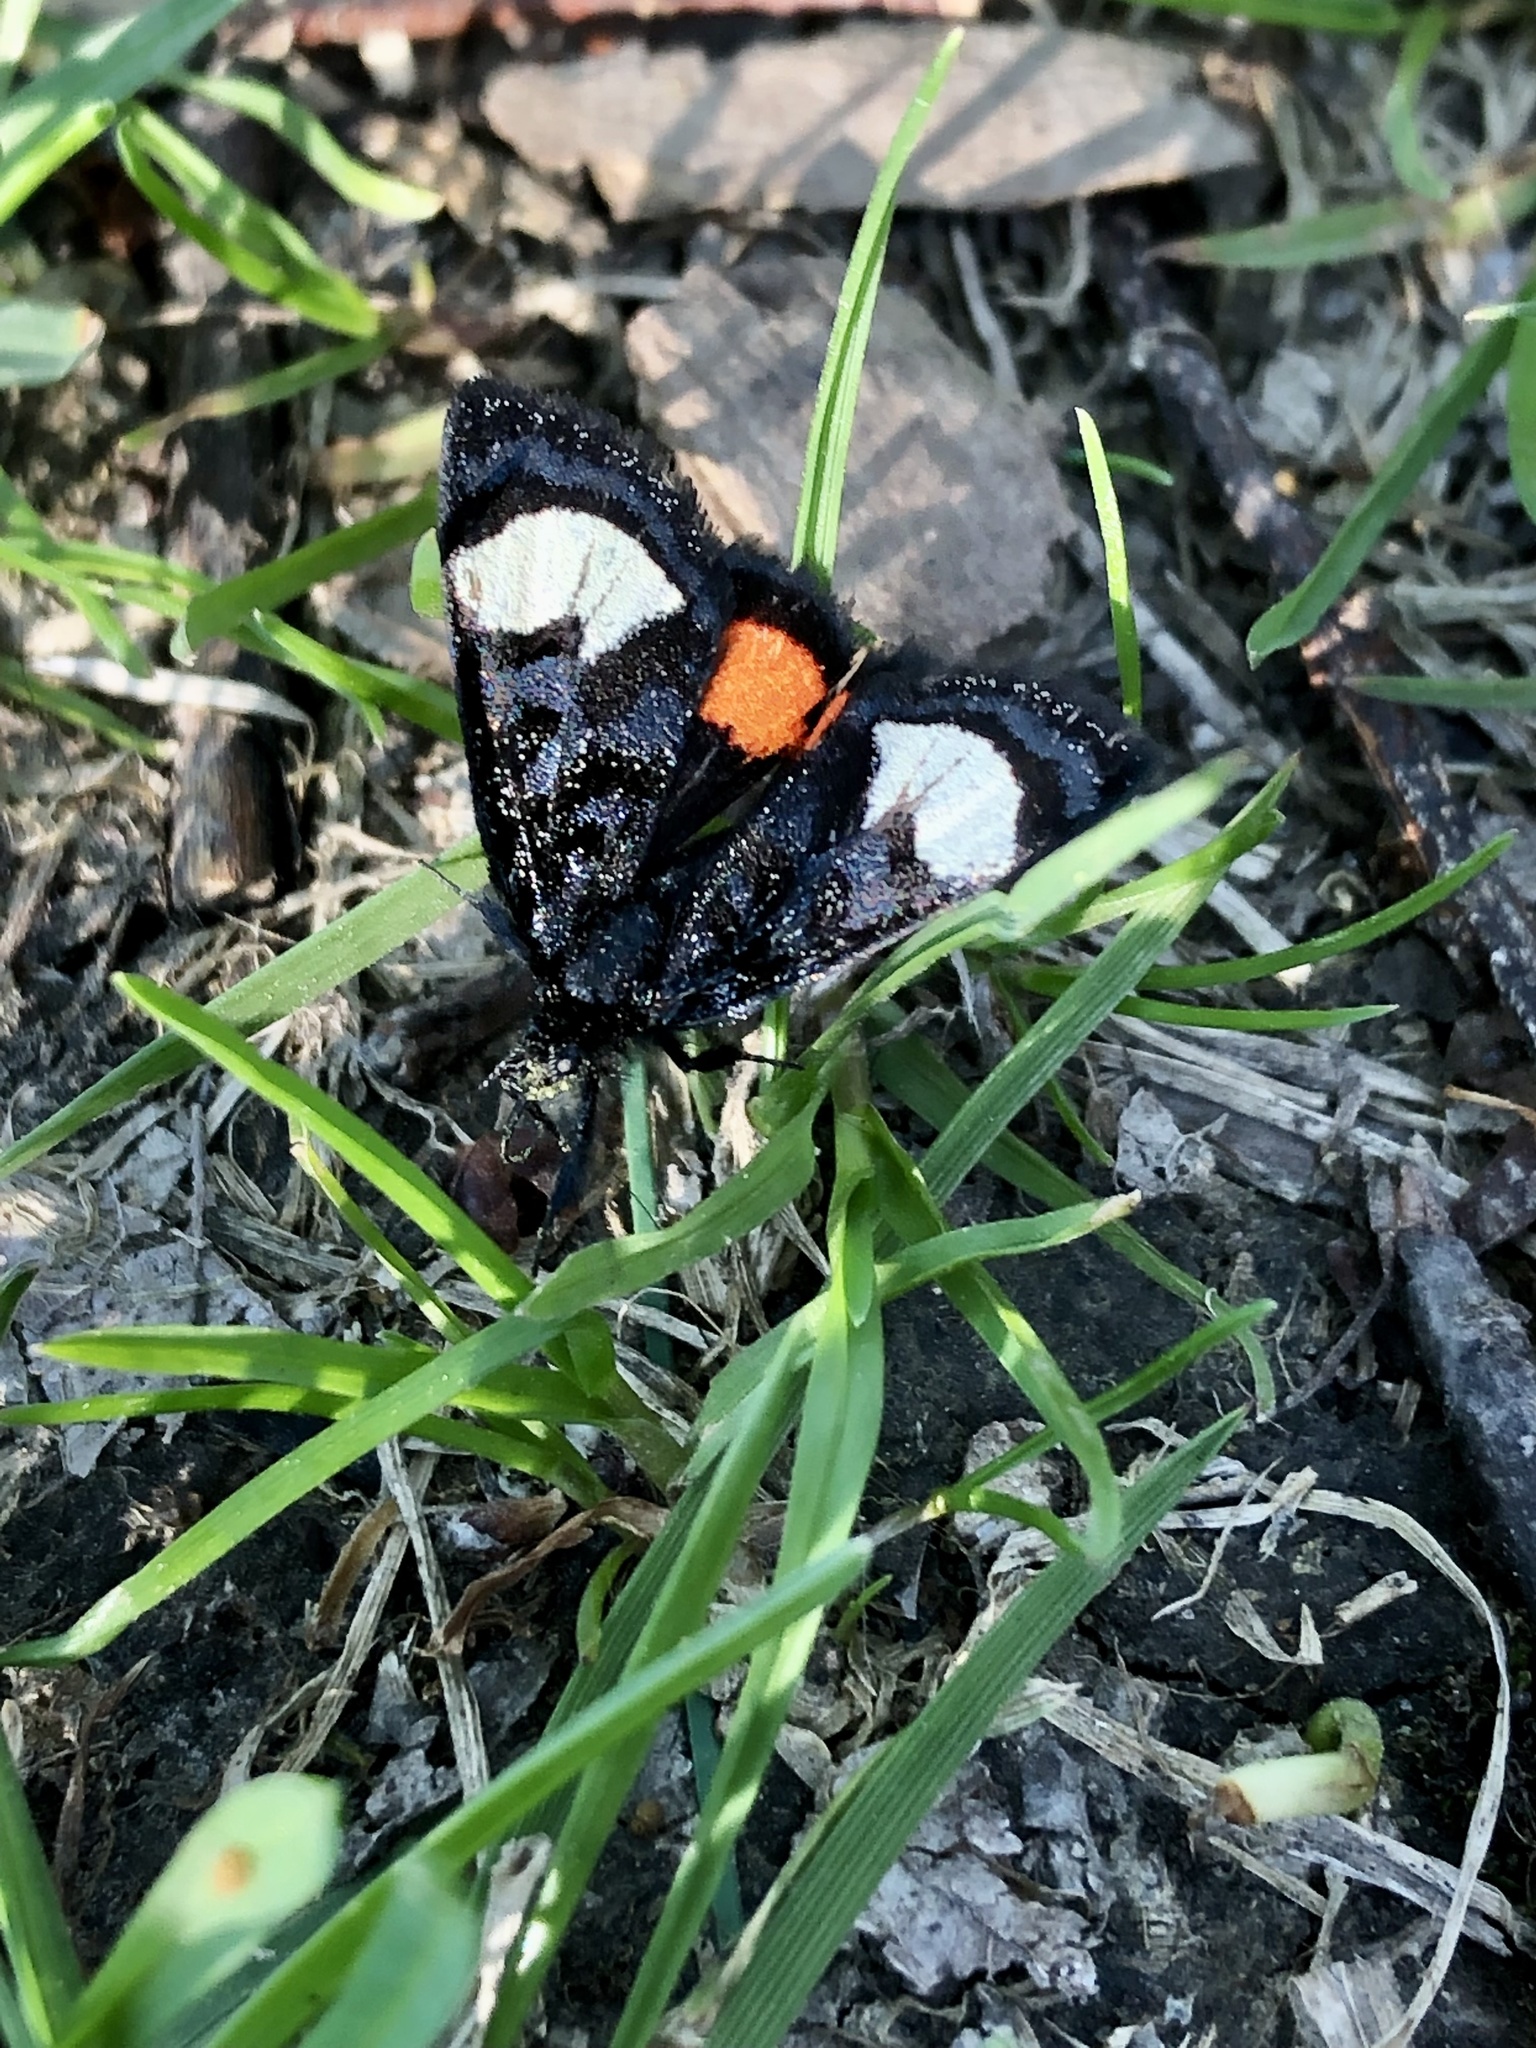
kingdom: Animalia
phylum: Arthropoda
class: Insecta
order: Lepidoptera
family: Noctuidae
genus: Psychomorpha
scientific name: Psychomorpha epimenis
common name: Grapevine epimenis moth
